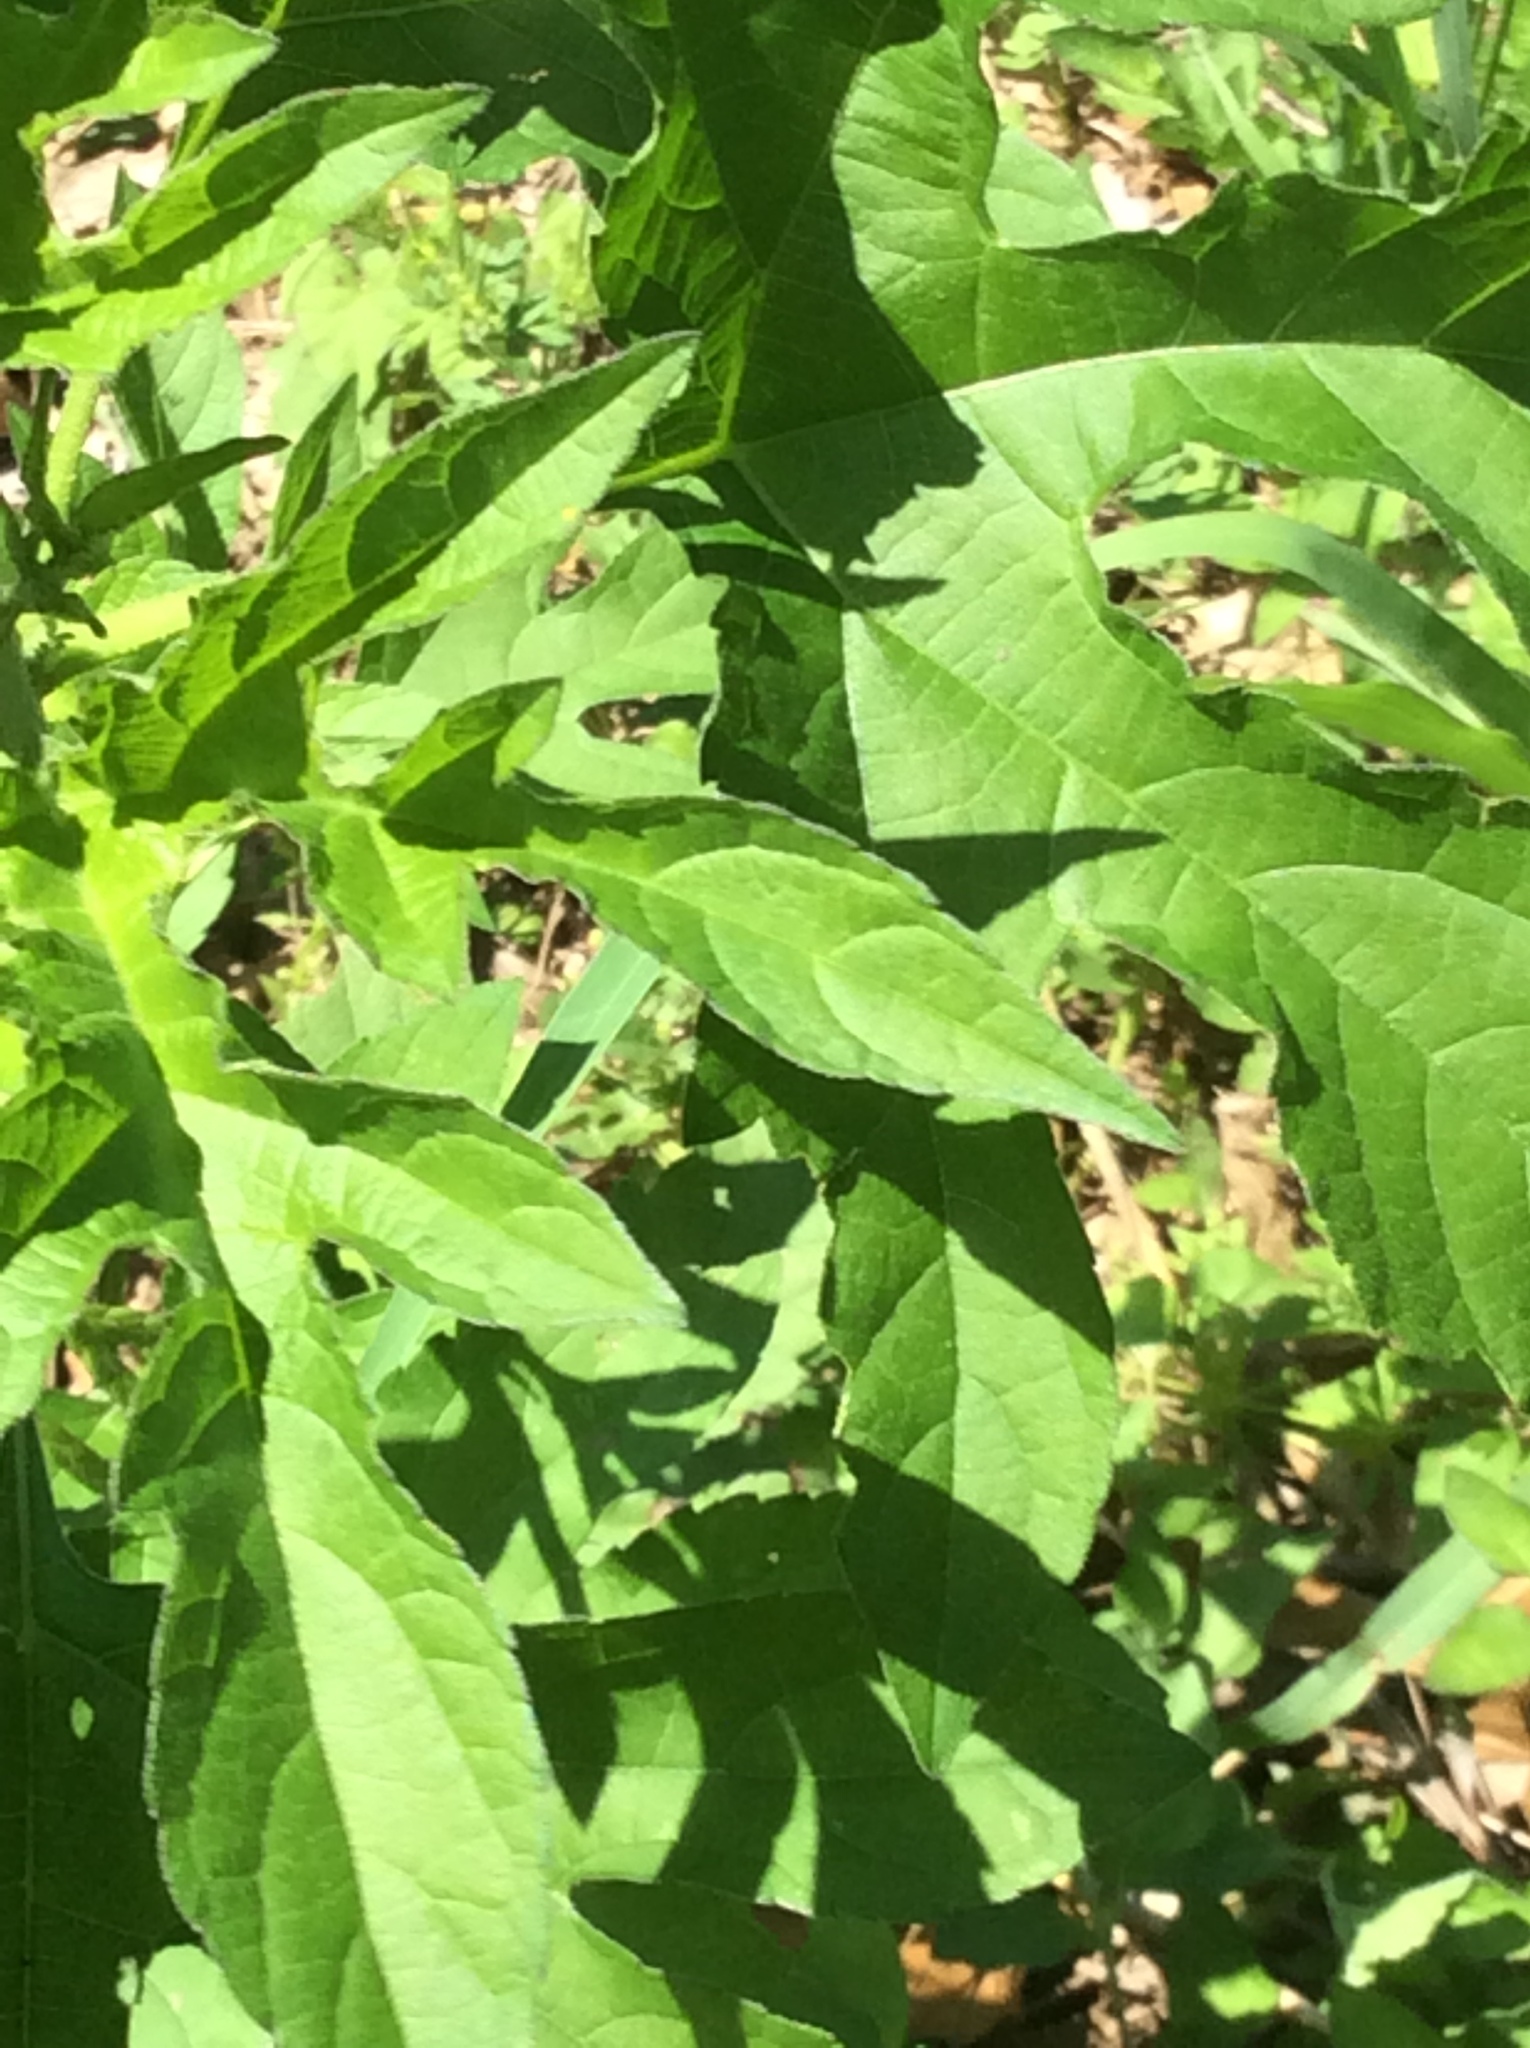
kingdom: Plantae
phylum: Tracheophyta
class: Magnoliopsida
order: Asterales
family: Asteraceae
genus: Ambrosia
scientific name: Ambrosia trifida
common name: Giant ragweed
